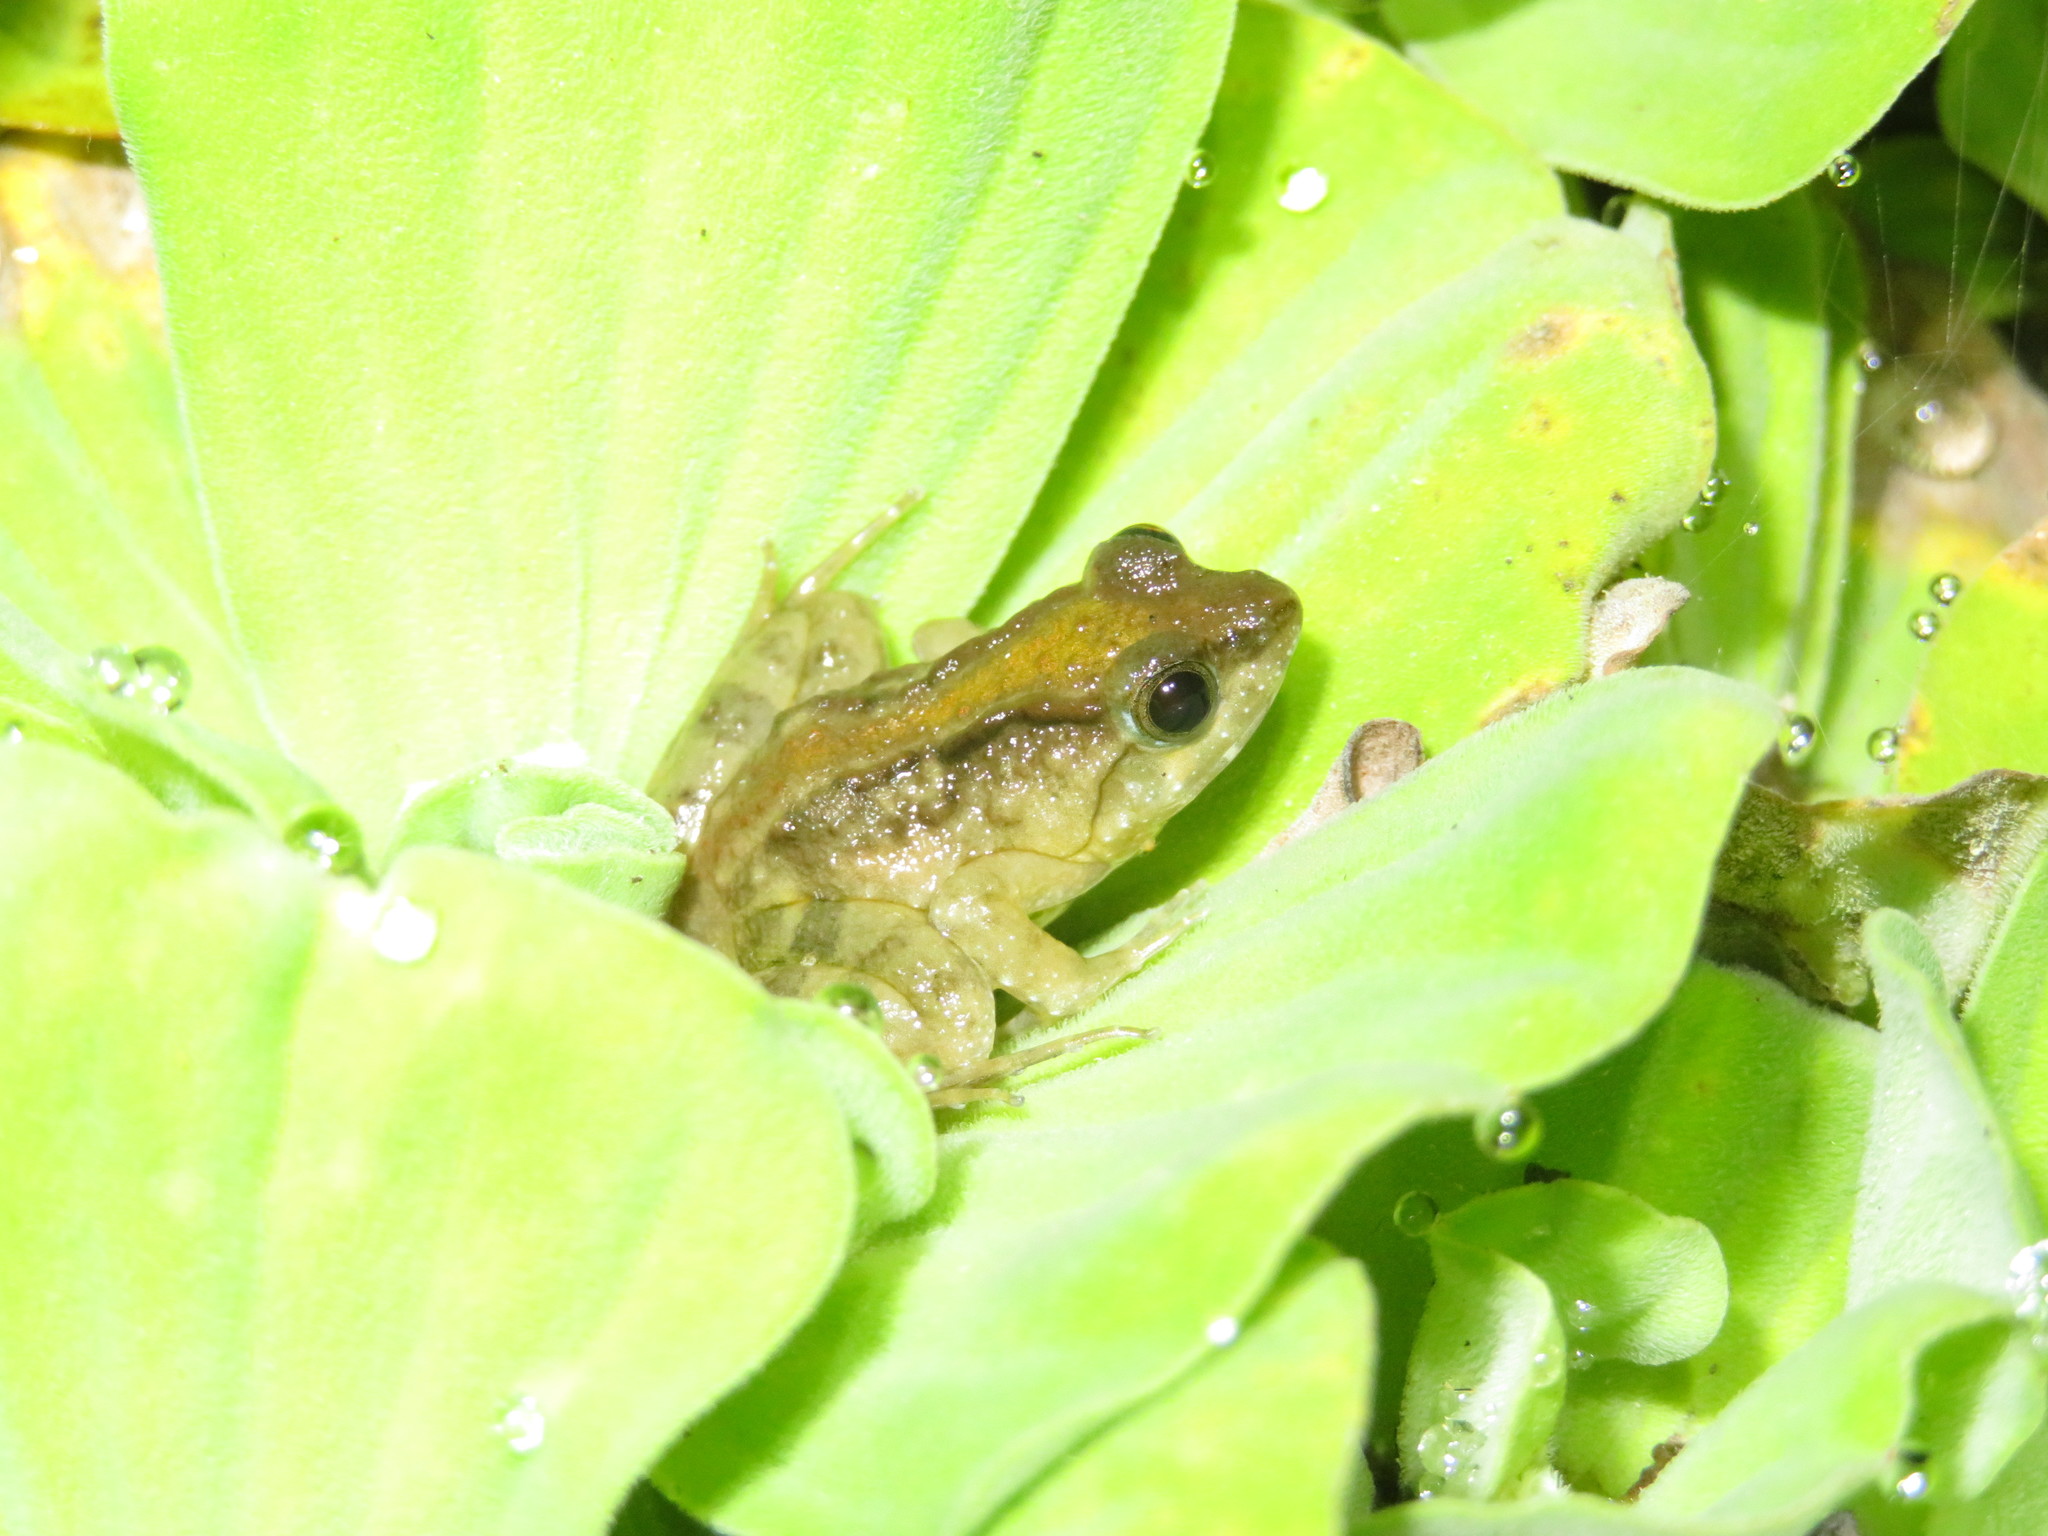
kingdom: Animalia
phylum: Chordata
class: Amphibia
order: Anura
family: Phrynobatrachidae
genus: Phrynobatrachus
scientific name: Phrynobatrachus acridoides
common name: East african puddle frog
